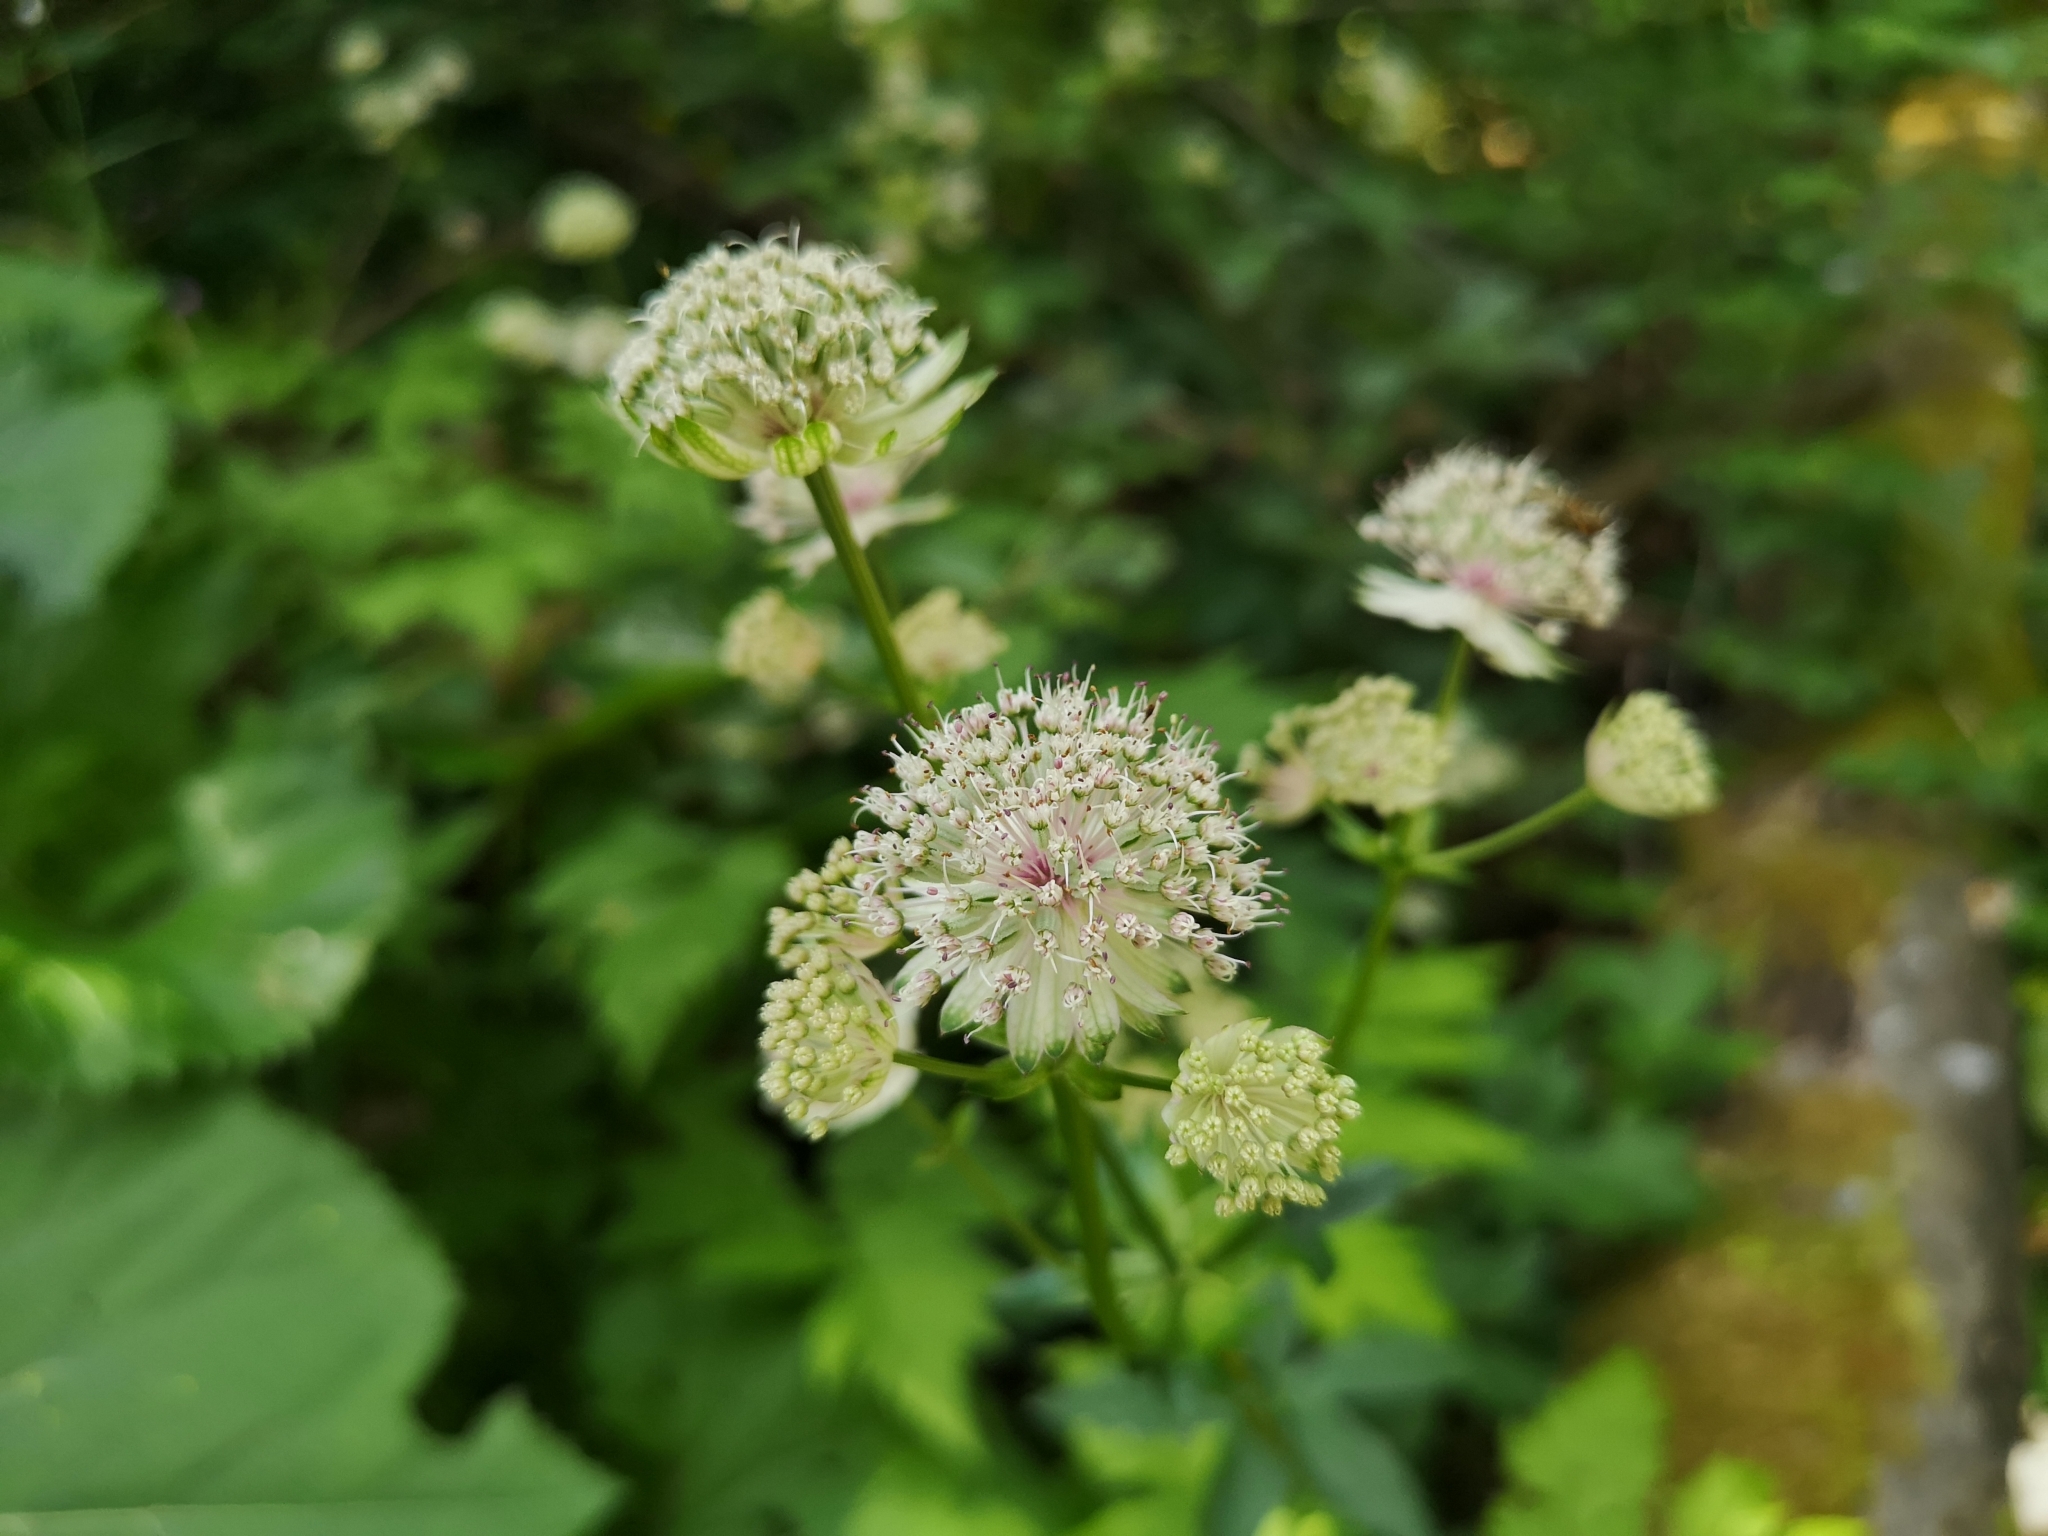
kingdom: Plantae
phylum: Tracheophyta
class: Magnoliopsida
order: Apiales
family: Apiaceae
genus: Astrantia
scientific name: Astrantia major
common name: Greater masterwort
